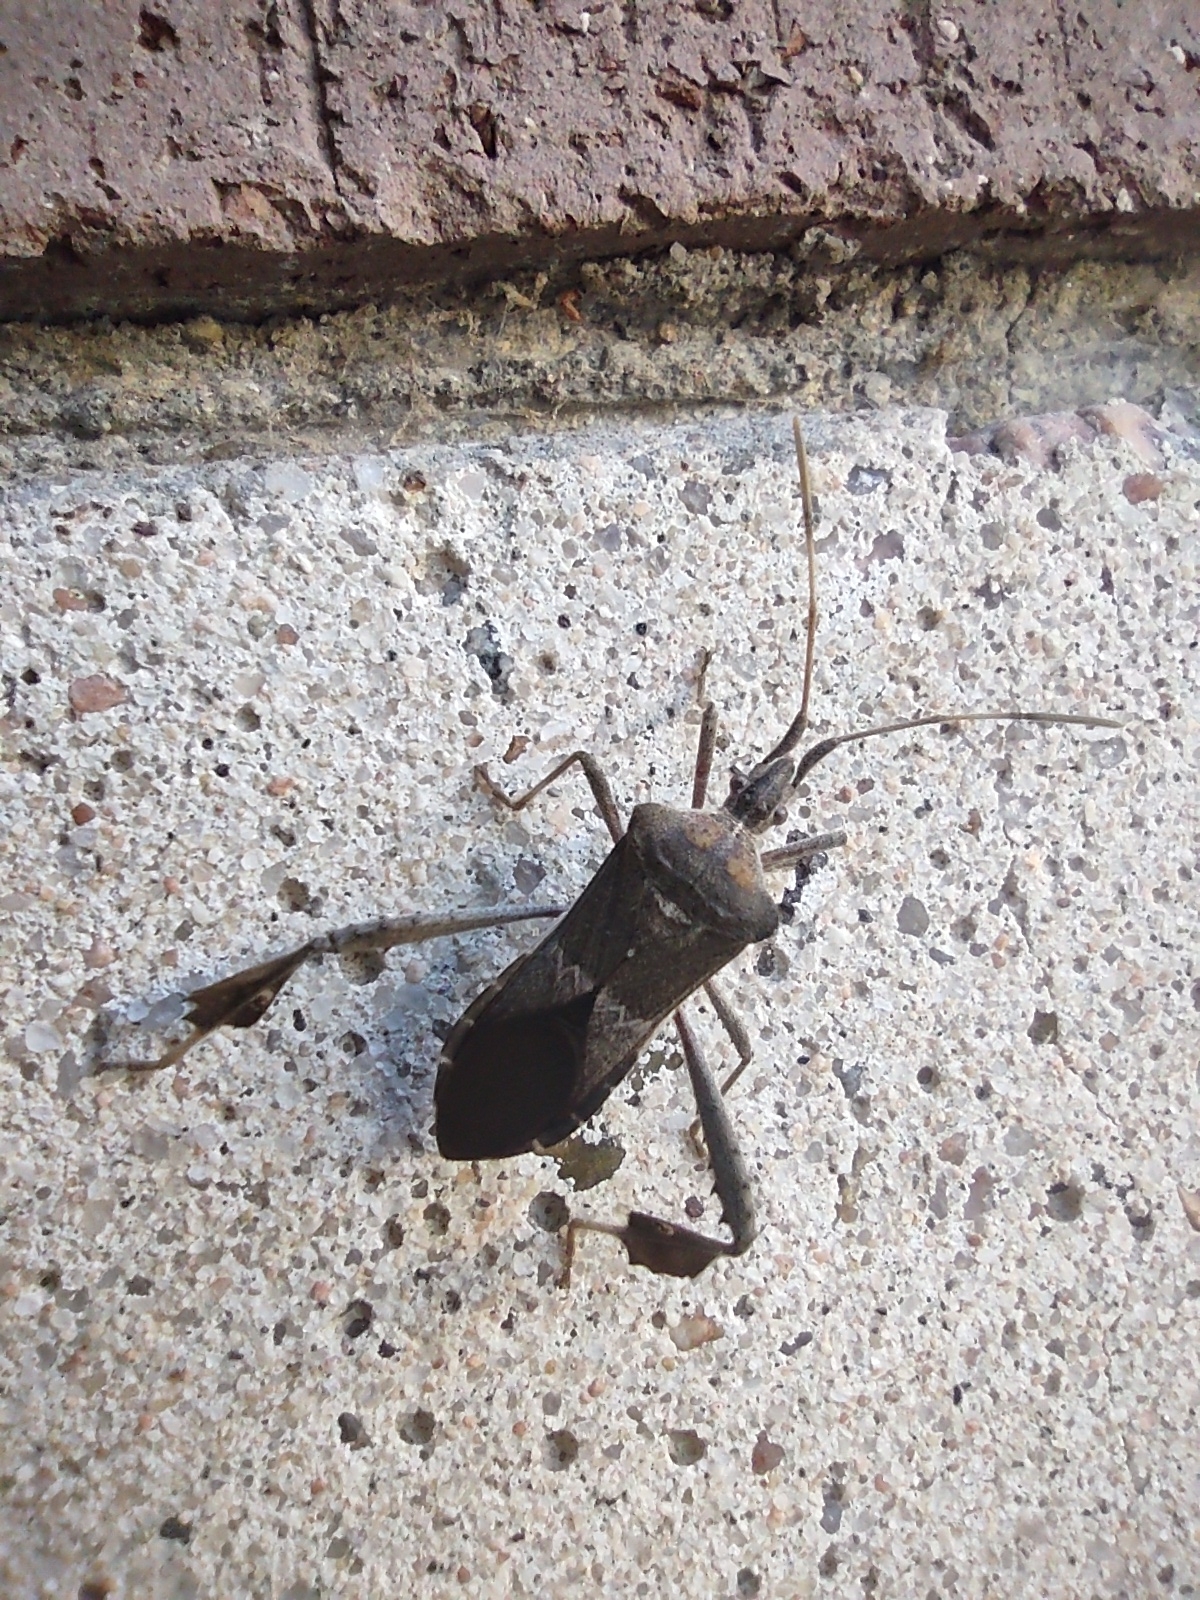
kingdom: Animalia
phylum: Arthropoda
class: Insecta
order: Hemiptera
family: Coreidae
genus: Leptoglossus
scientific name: Leptoglossus zonatus
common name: Large-legged bug
